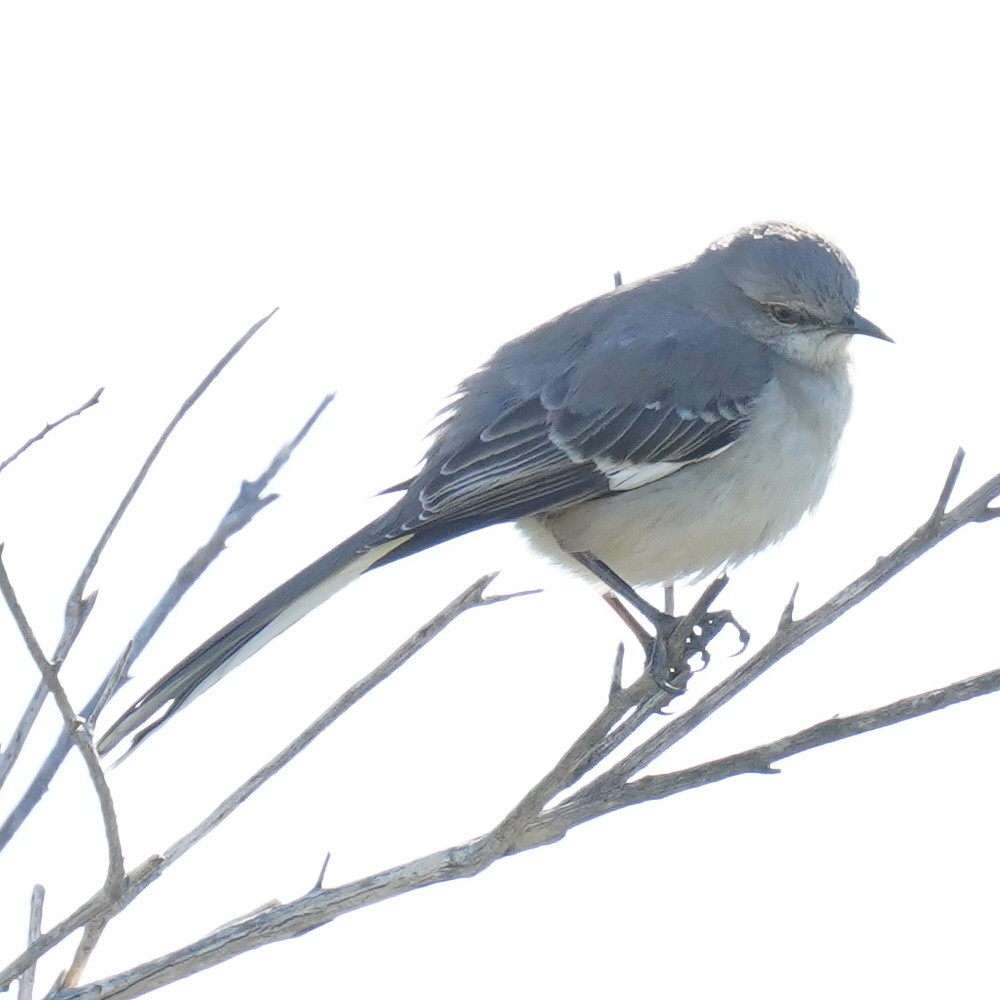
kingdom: Animalia
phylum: Chordata
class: Aves
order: Passeriformes
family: Mimidae
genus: Mimus
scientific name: Mimus polyglottos
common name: Northern mockingbird
